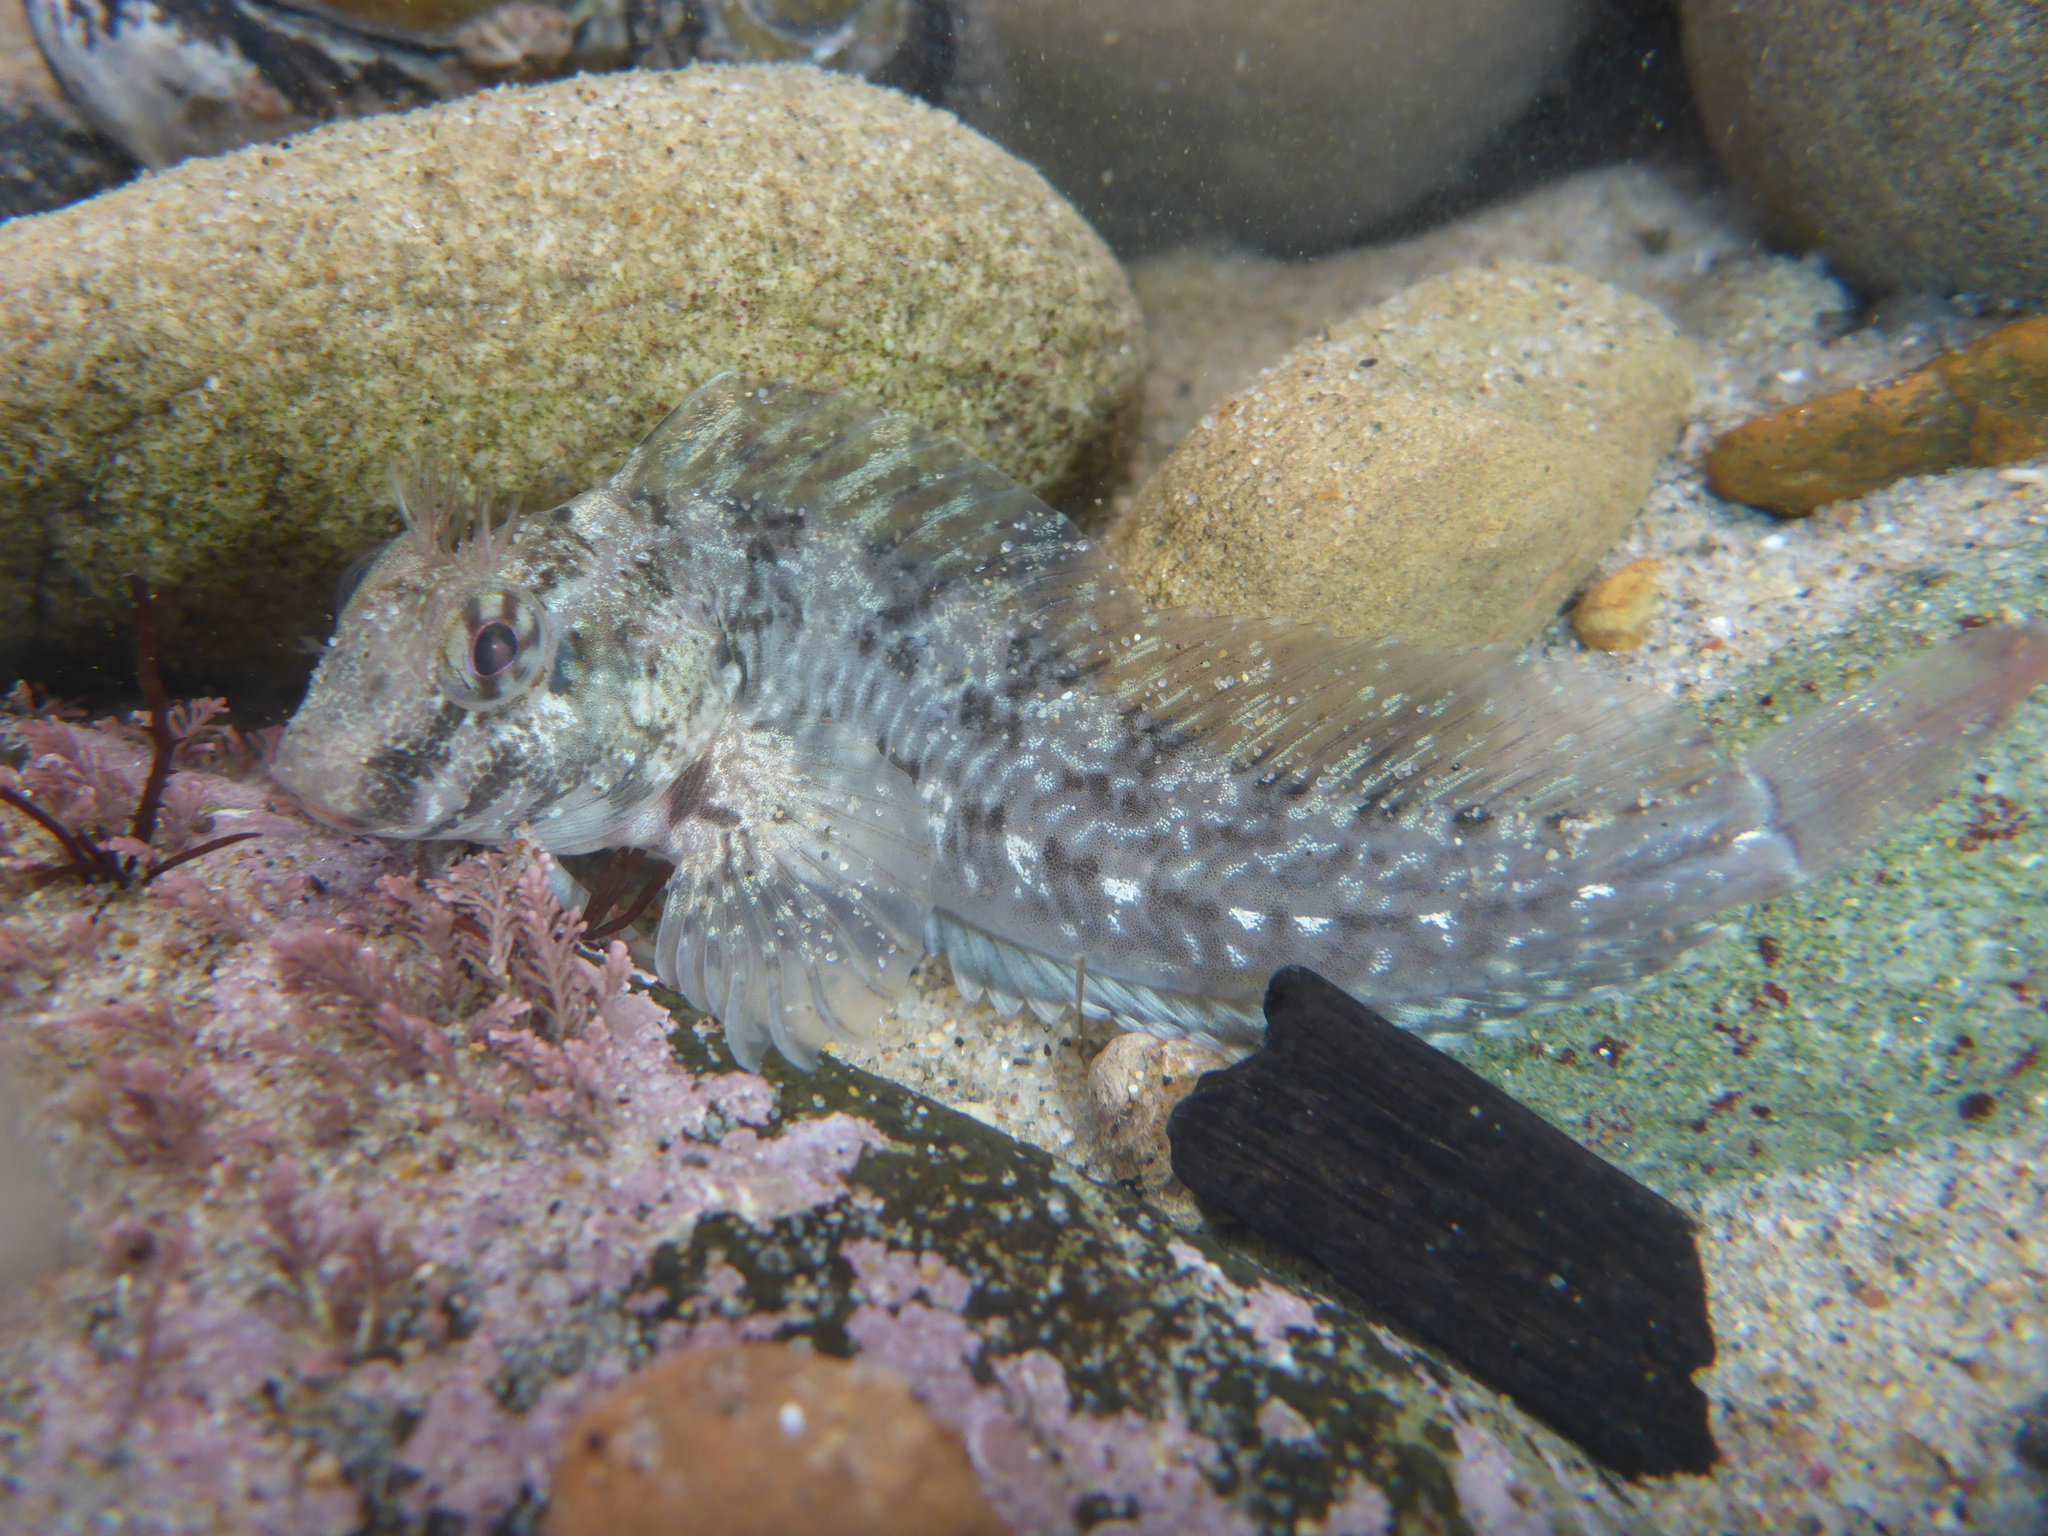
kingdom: Animalia
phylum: Chordata
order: Perciformes
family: Blenniidae
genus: Hypsoblennius
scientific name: Hypsoblennius gilberti
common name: Notchbrow blenny
